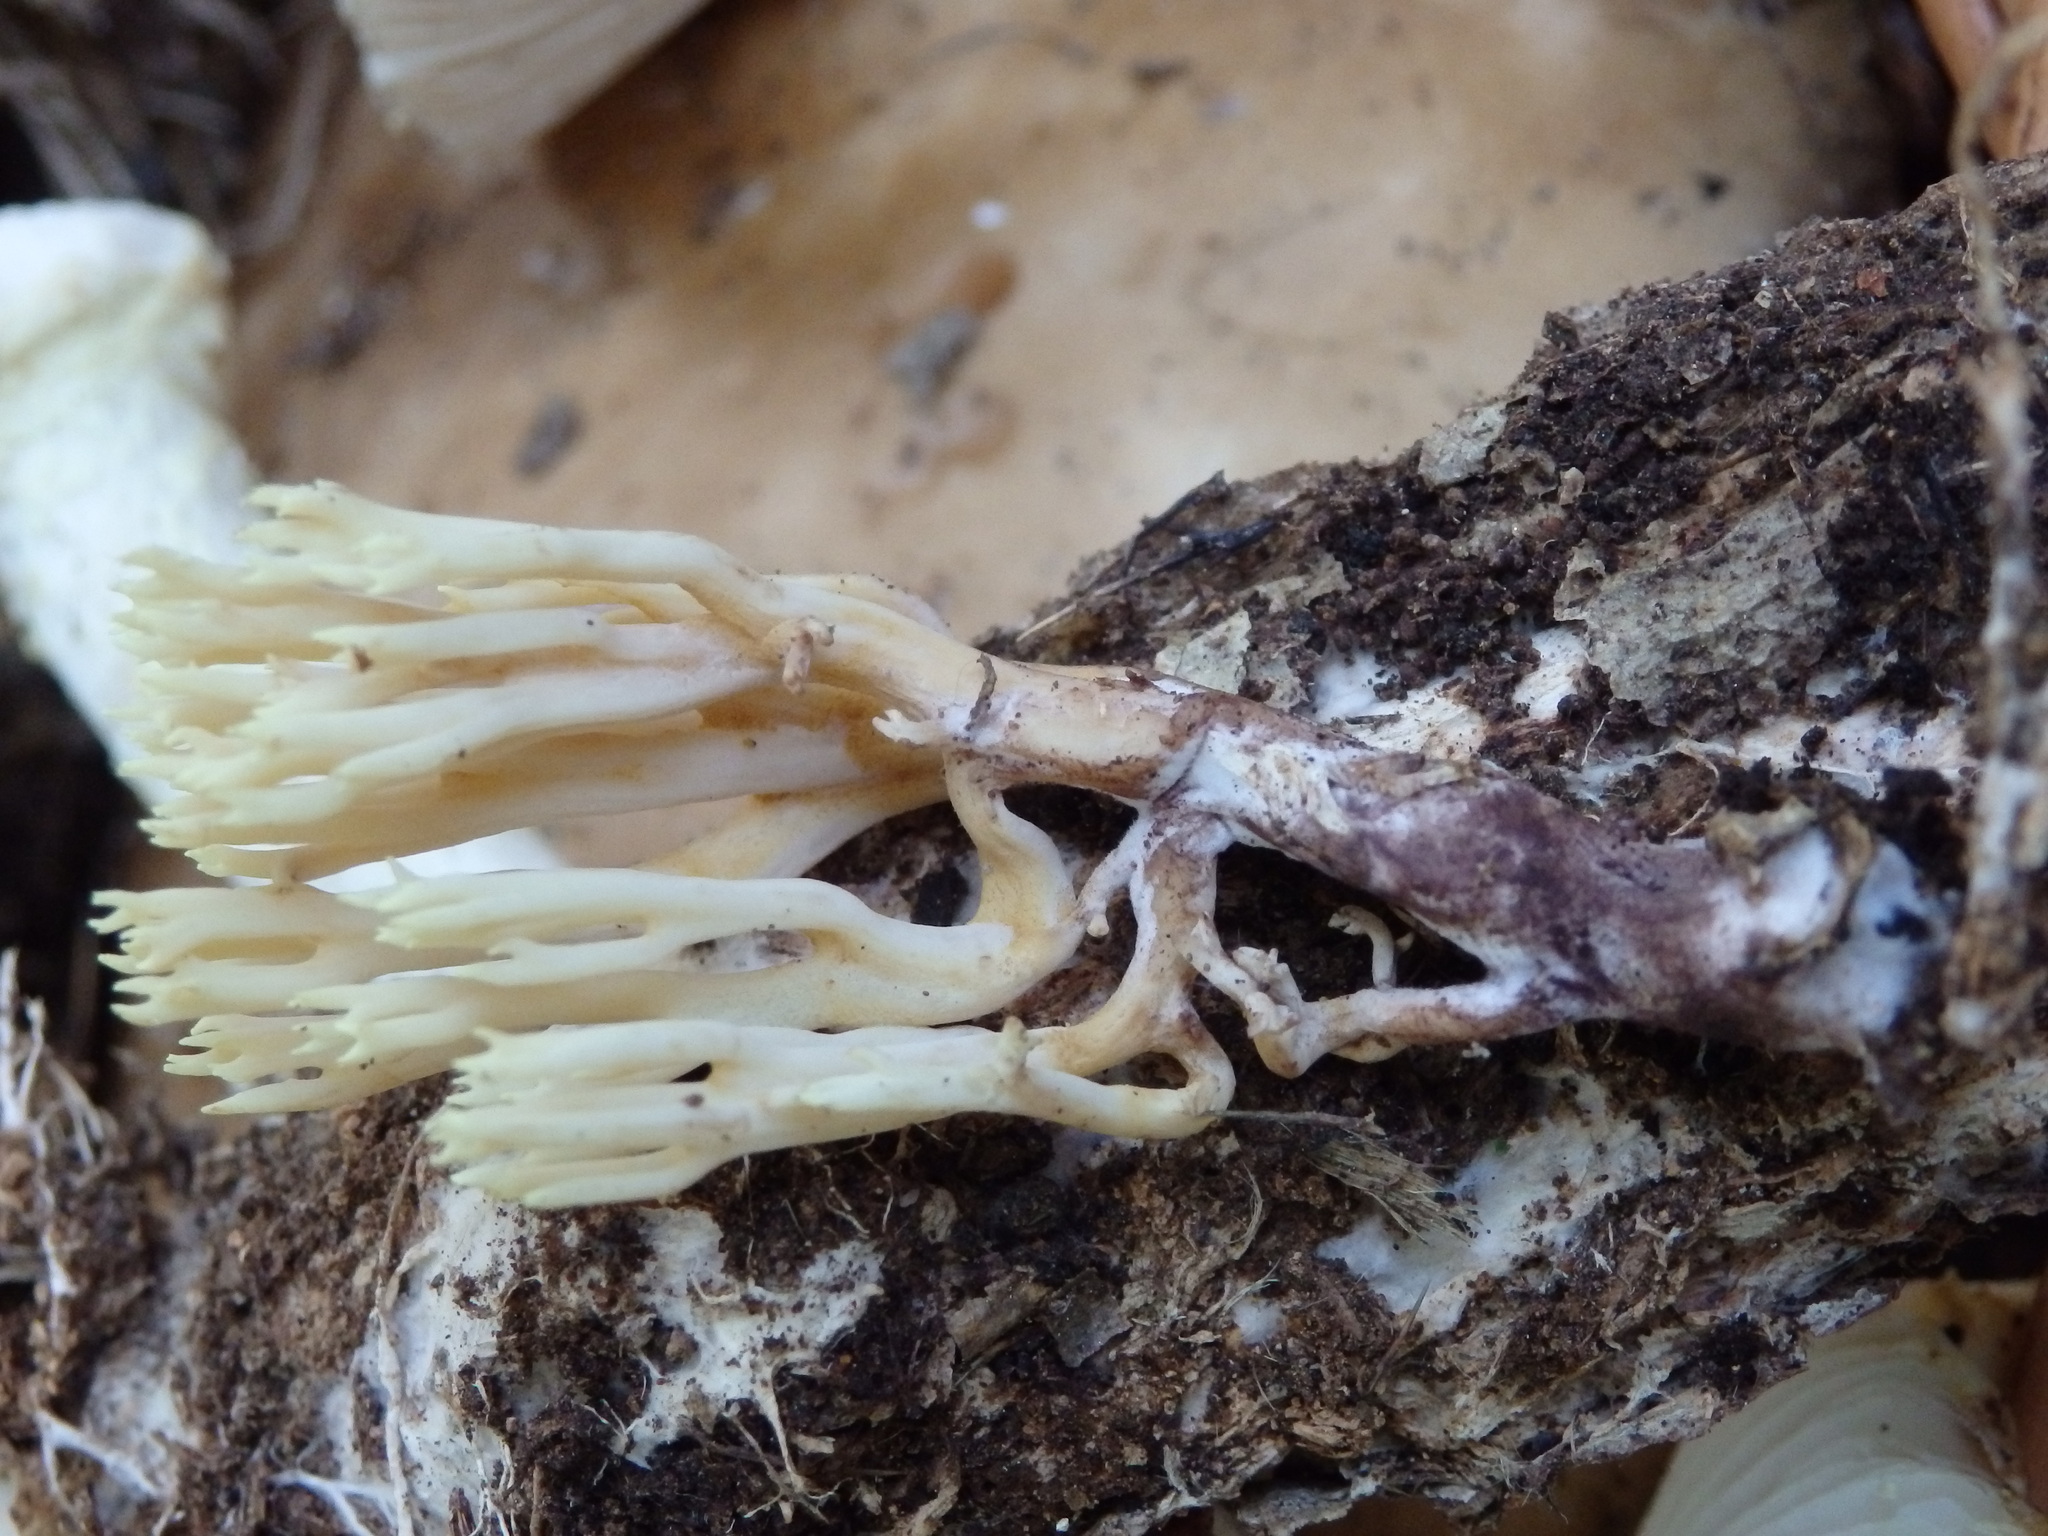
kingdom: Fungi
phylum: Basidiomycota
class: Agaricomycetes
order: Gomphales
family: Gomphaceae
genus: Ramaria
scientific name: Ramaria stricta
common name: Upright coral
